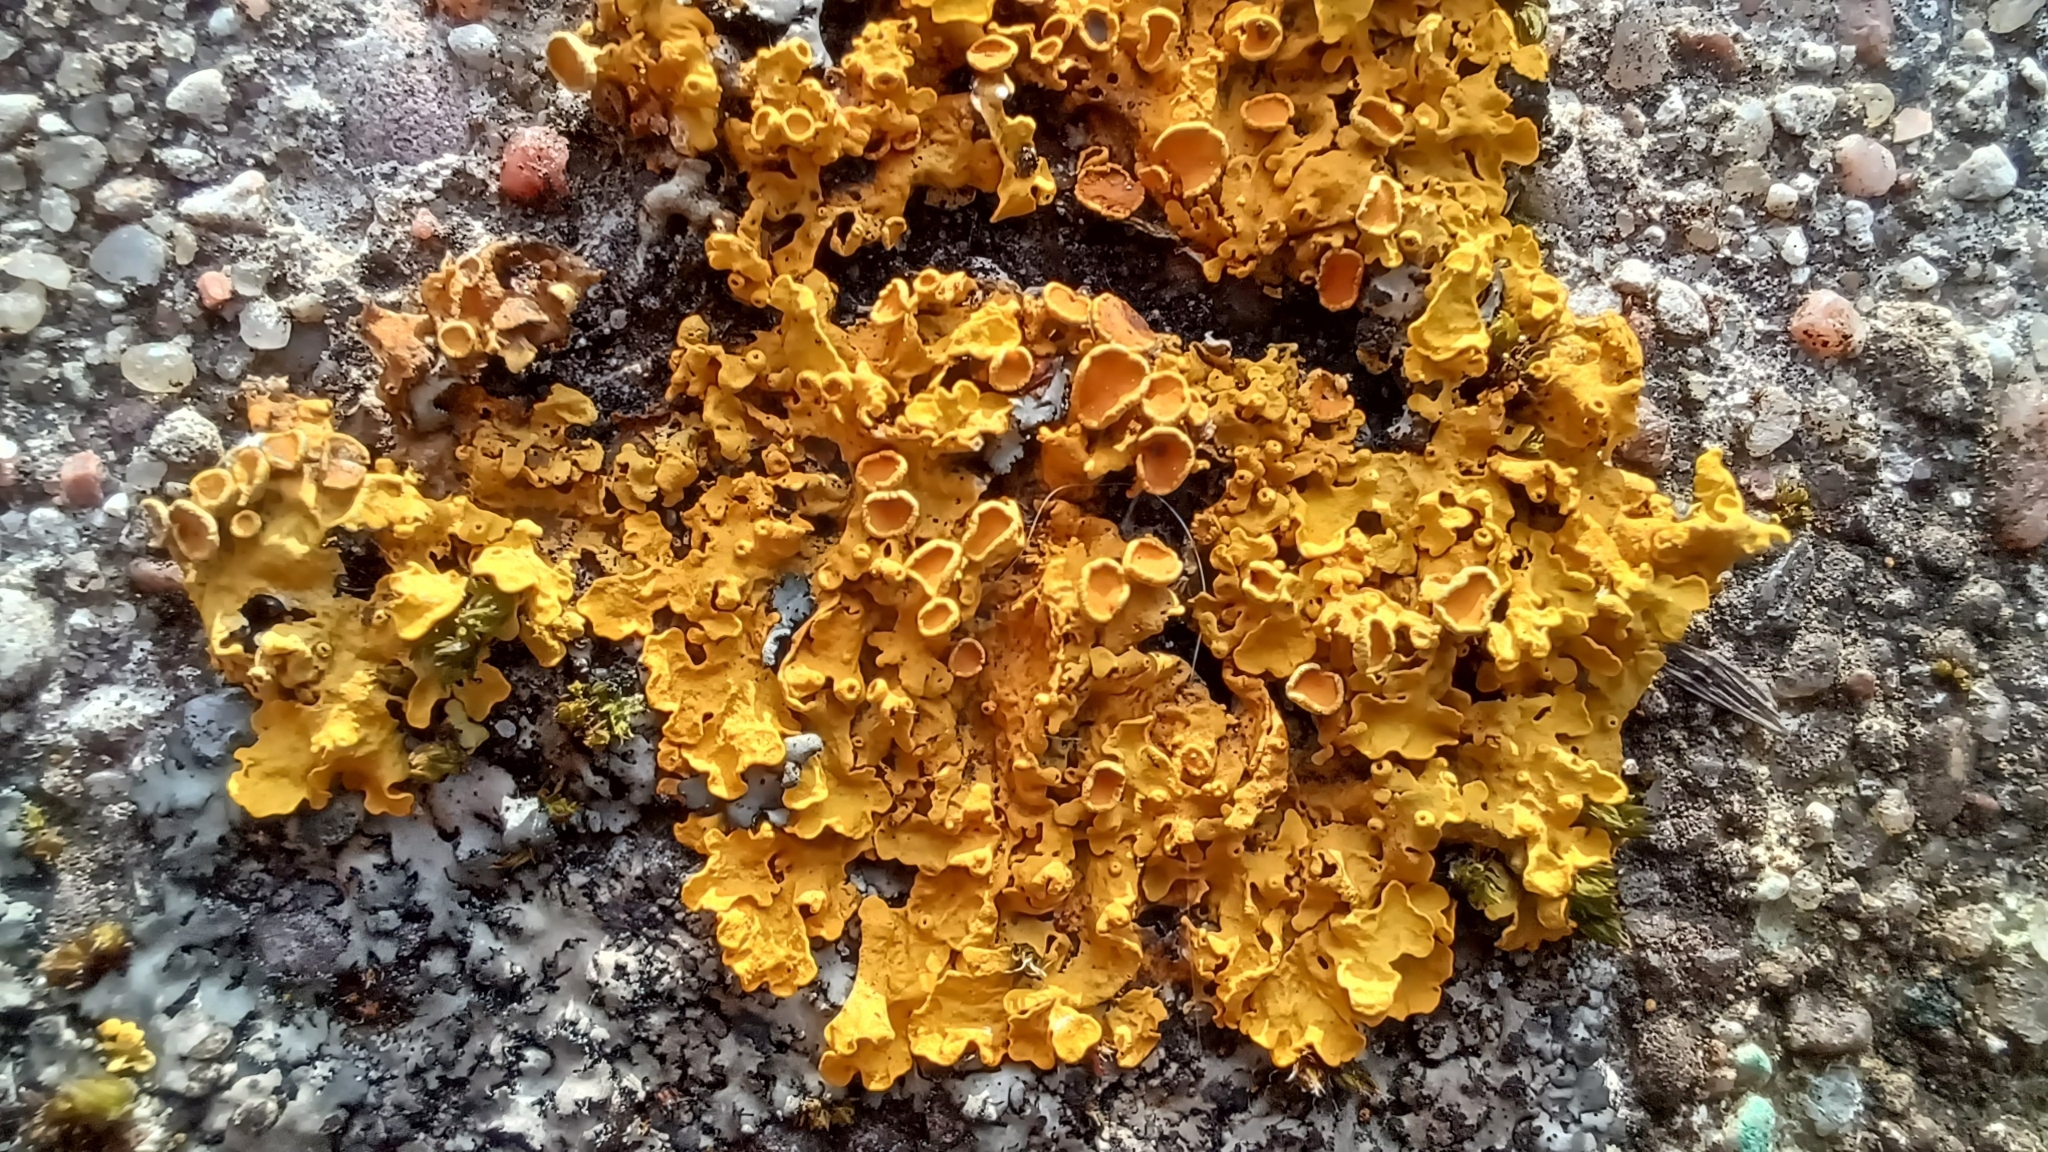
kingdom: Fungi
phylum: Ascomycota
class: Lecanoromycetes
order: Teloschistales
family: Teloschistaceae
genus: Xanthoria
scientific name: Xanthoria parietina
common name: Common orange lichen
